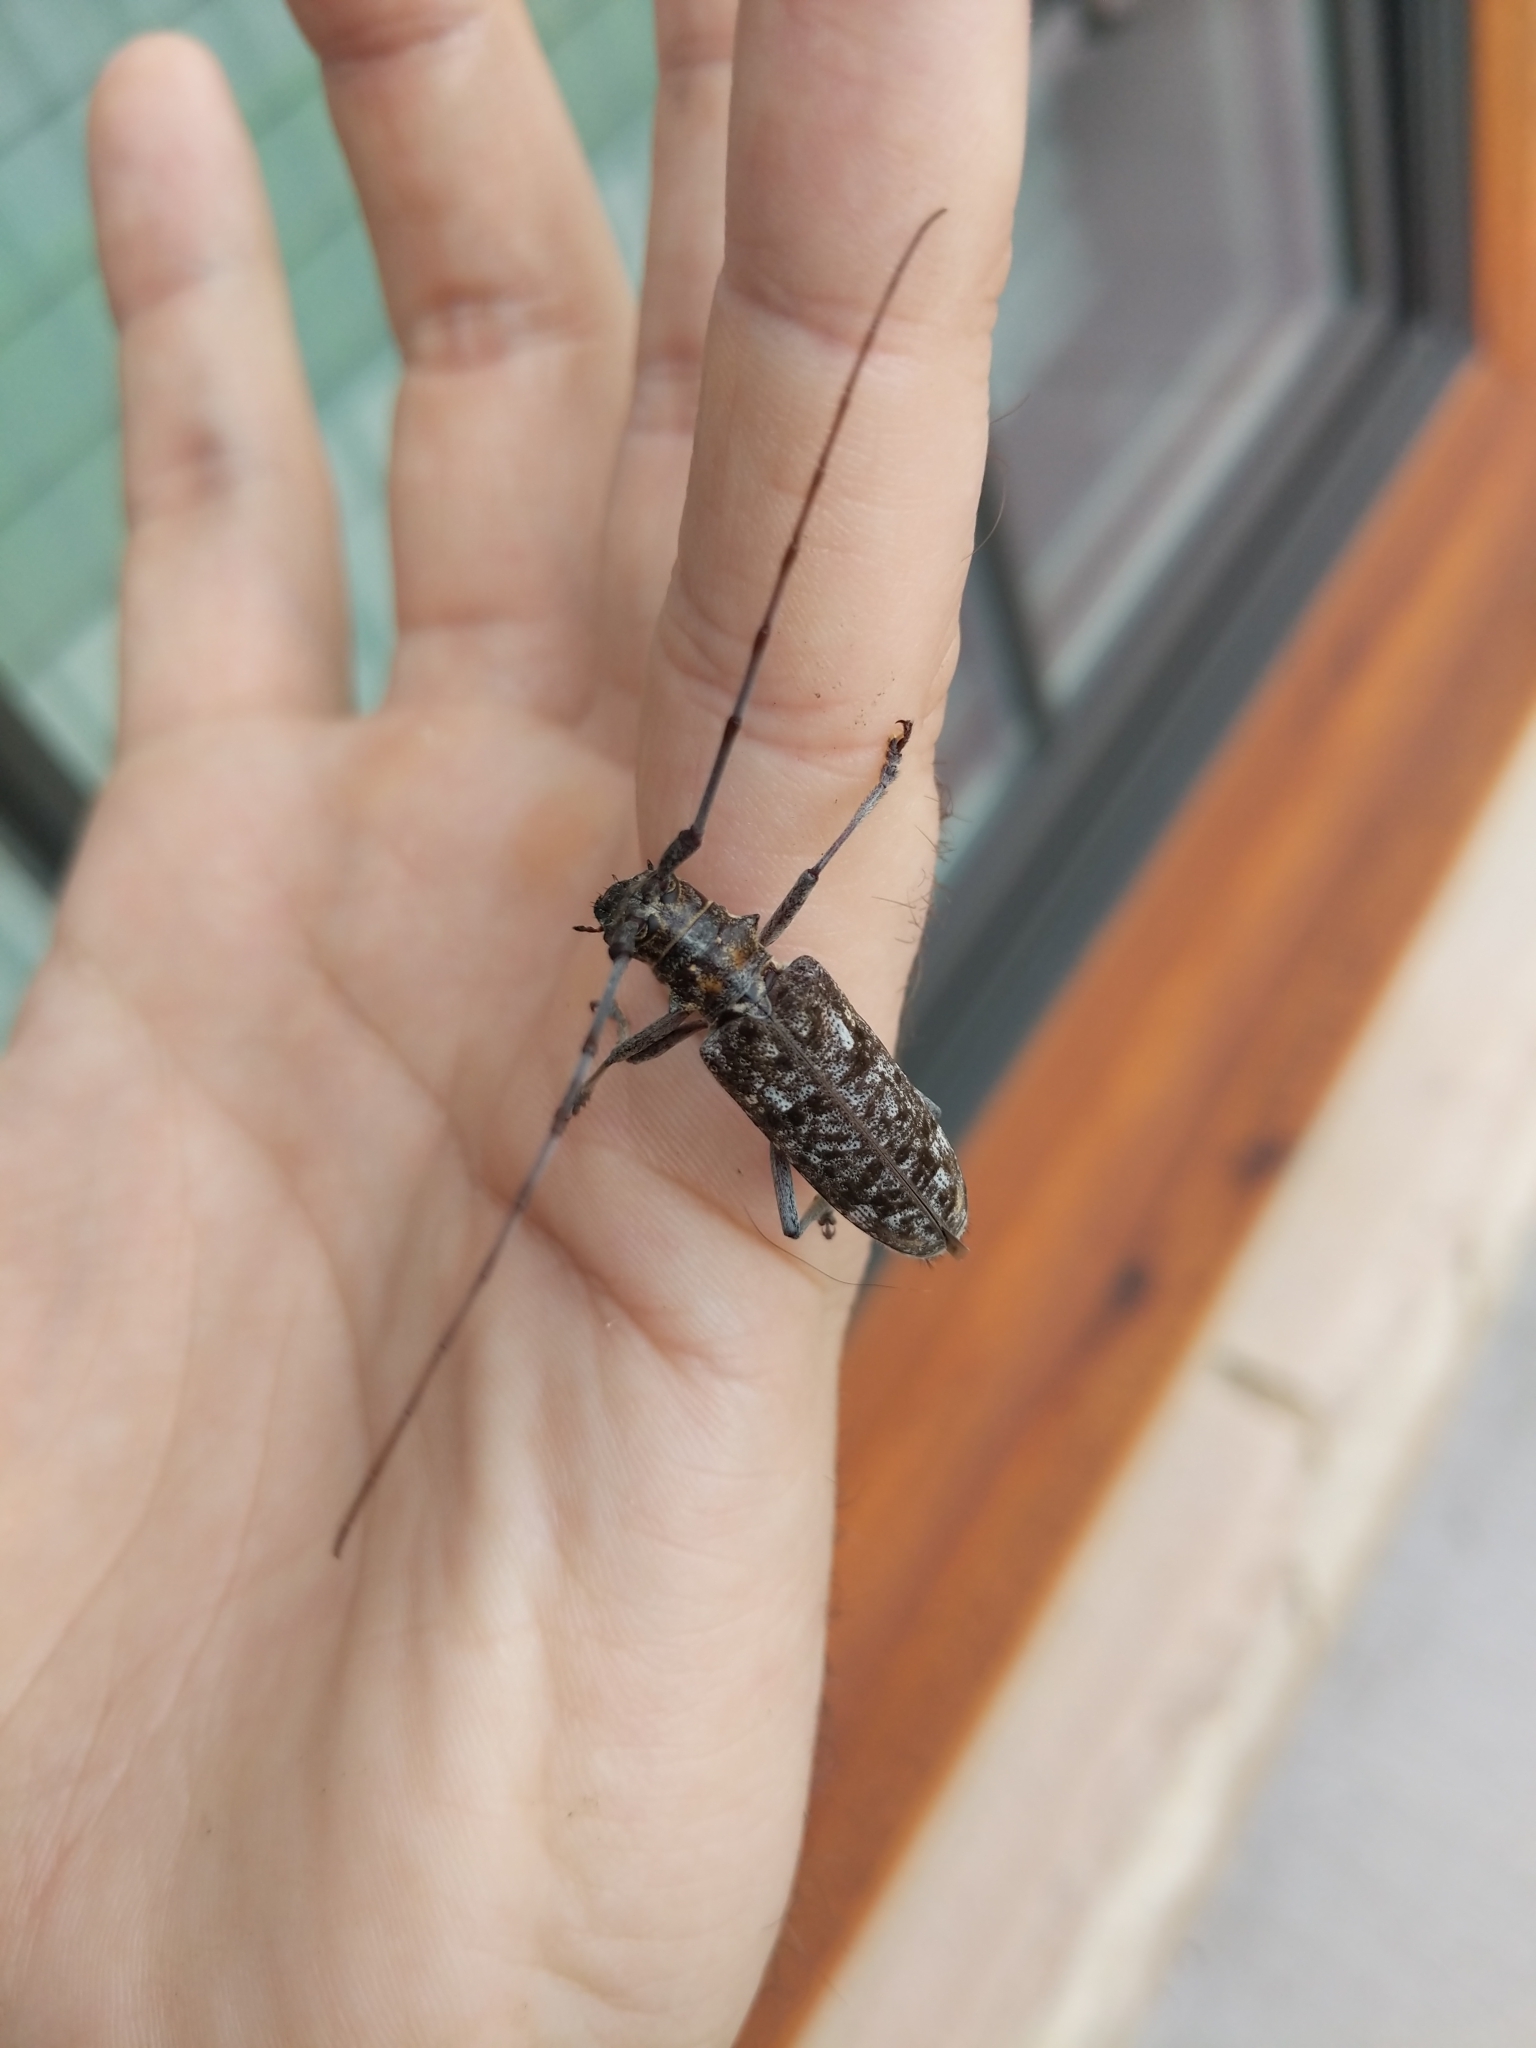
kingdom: Animalia
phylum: Arthropoda
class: Insecta
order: Coleoptera
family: Cerambycidae
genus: Monochamus
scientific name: Monochamus carolinensis
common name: Carolina pine sawyer
